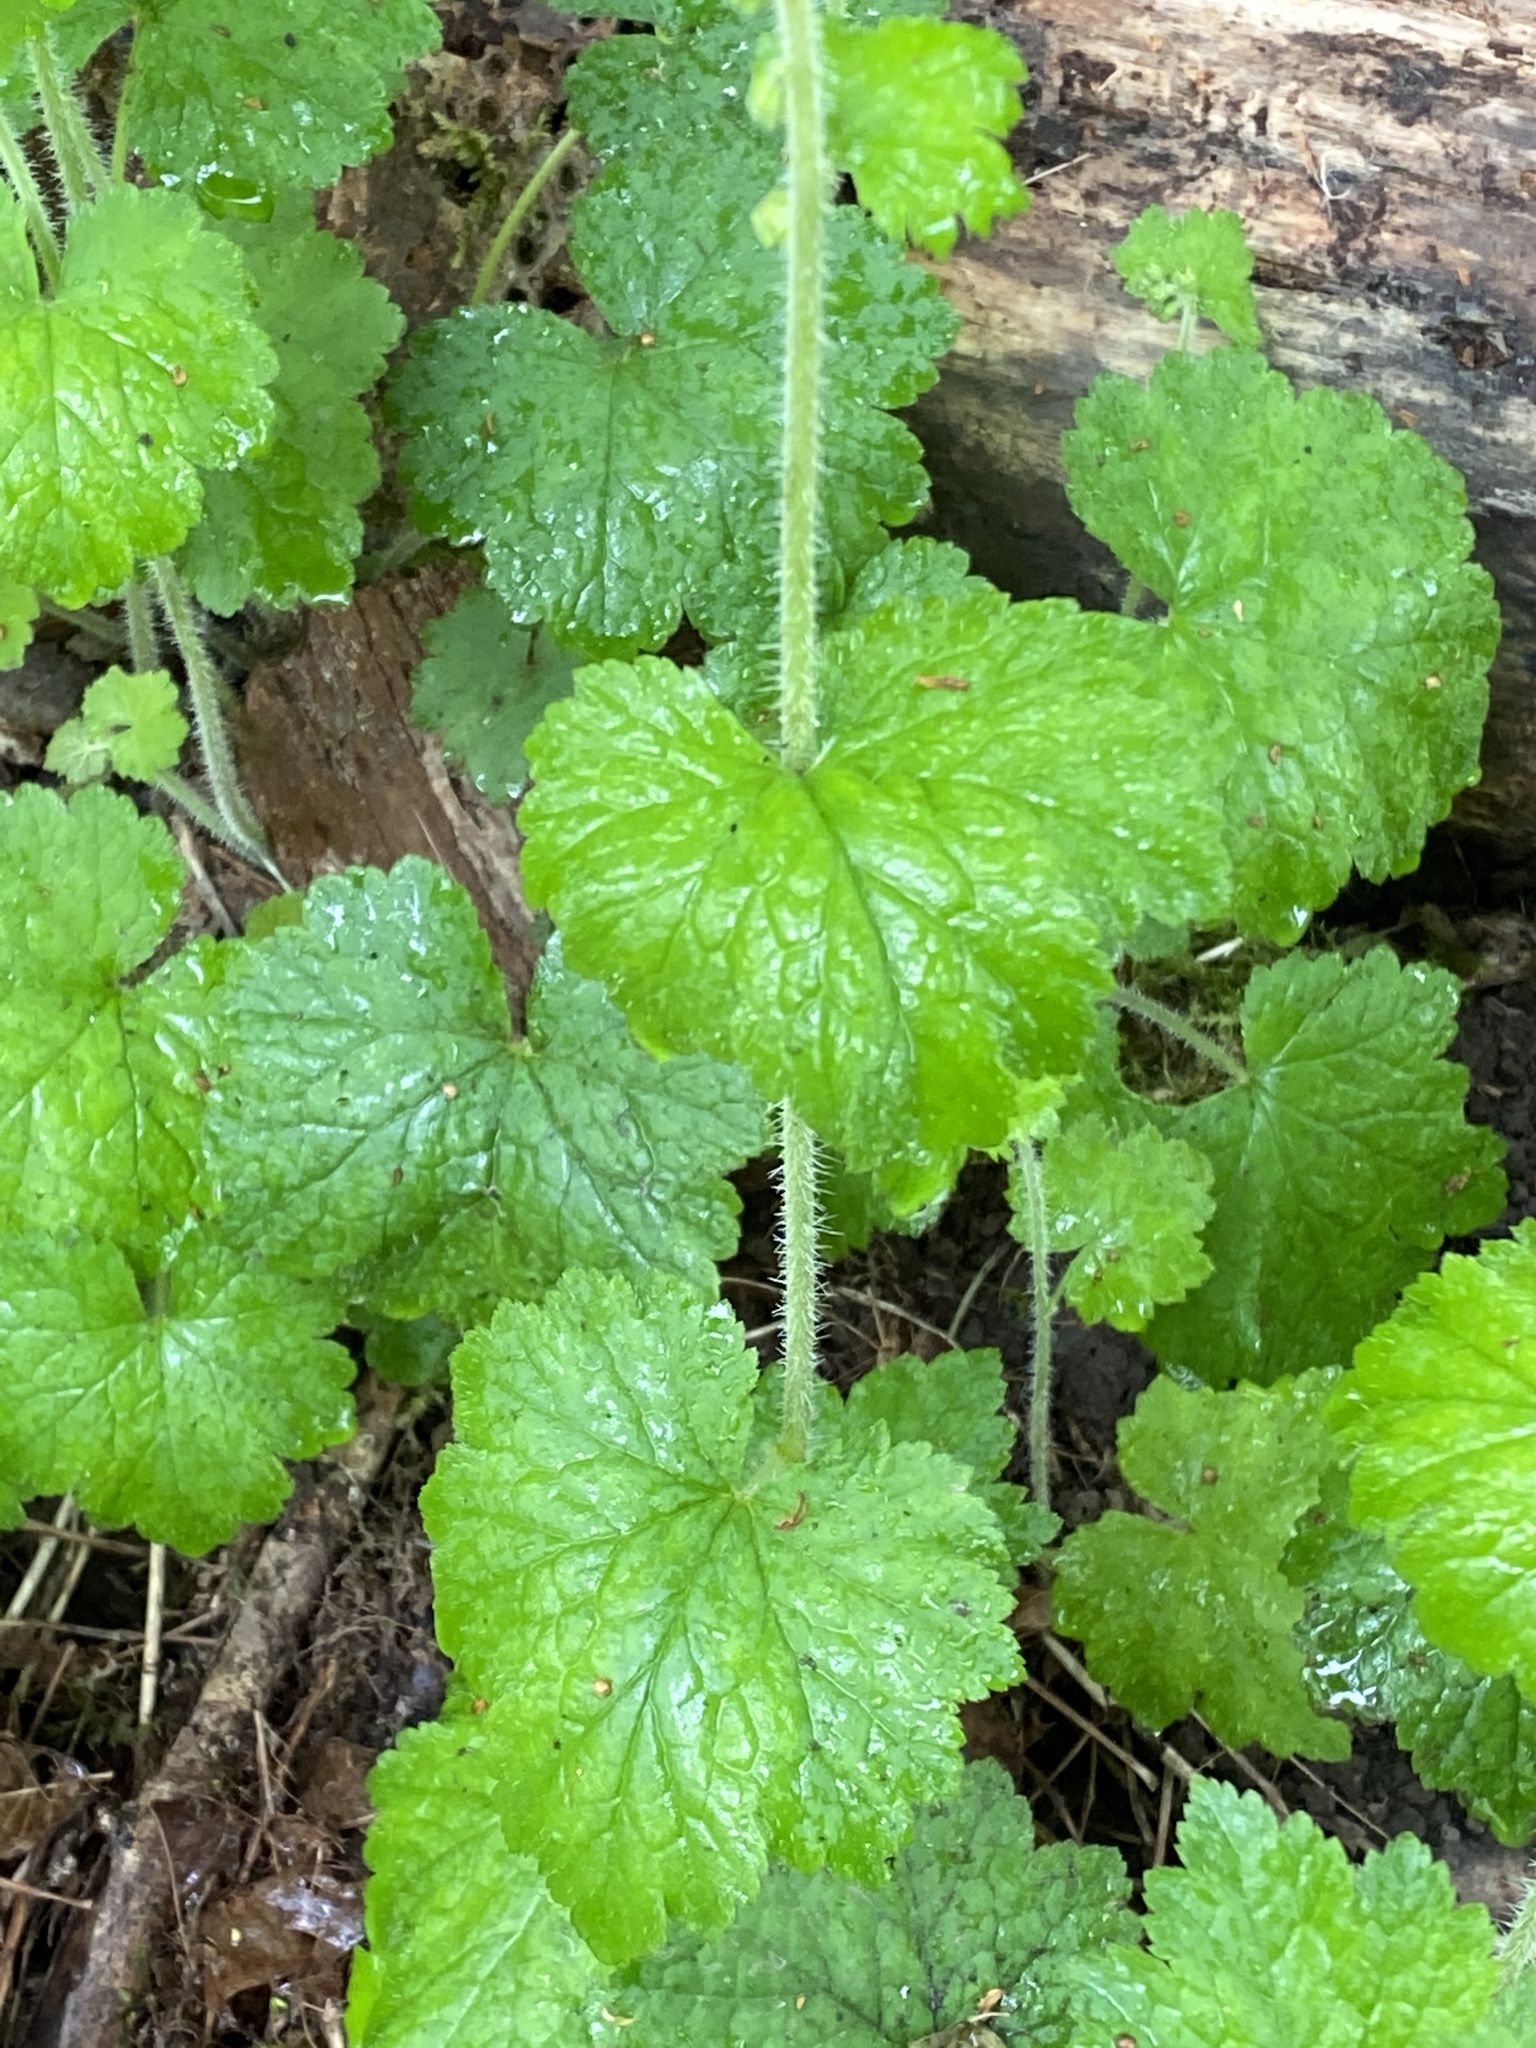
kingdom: Plantae
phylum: Tracheophyta
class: Magnoliopsida
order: Saxifragales
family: Saxifragaceae
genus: Tellima
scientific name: Tellima grandiflora
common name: Fringecups
